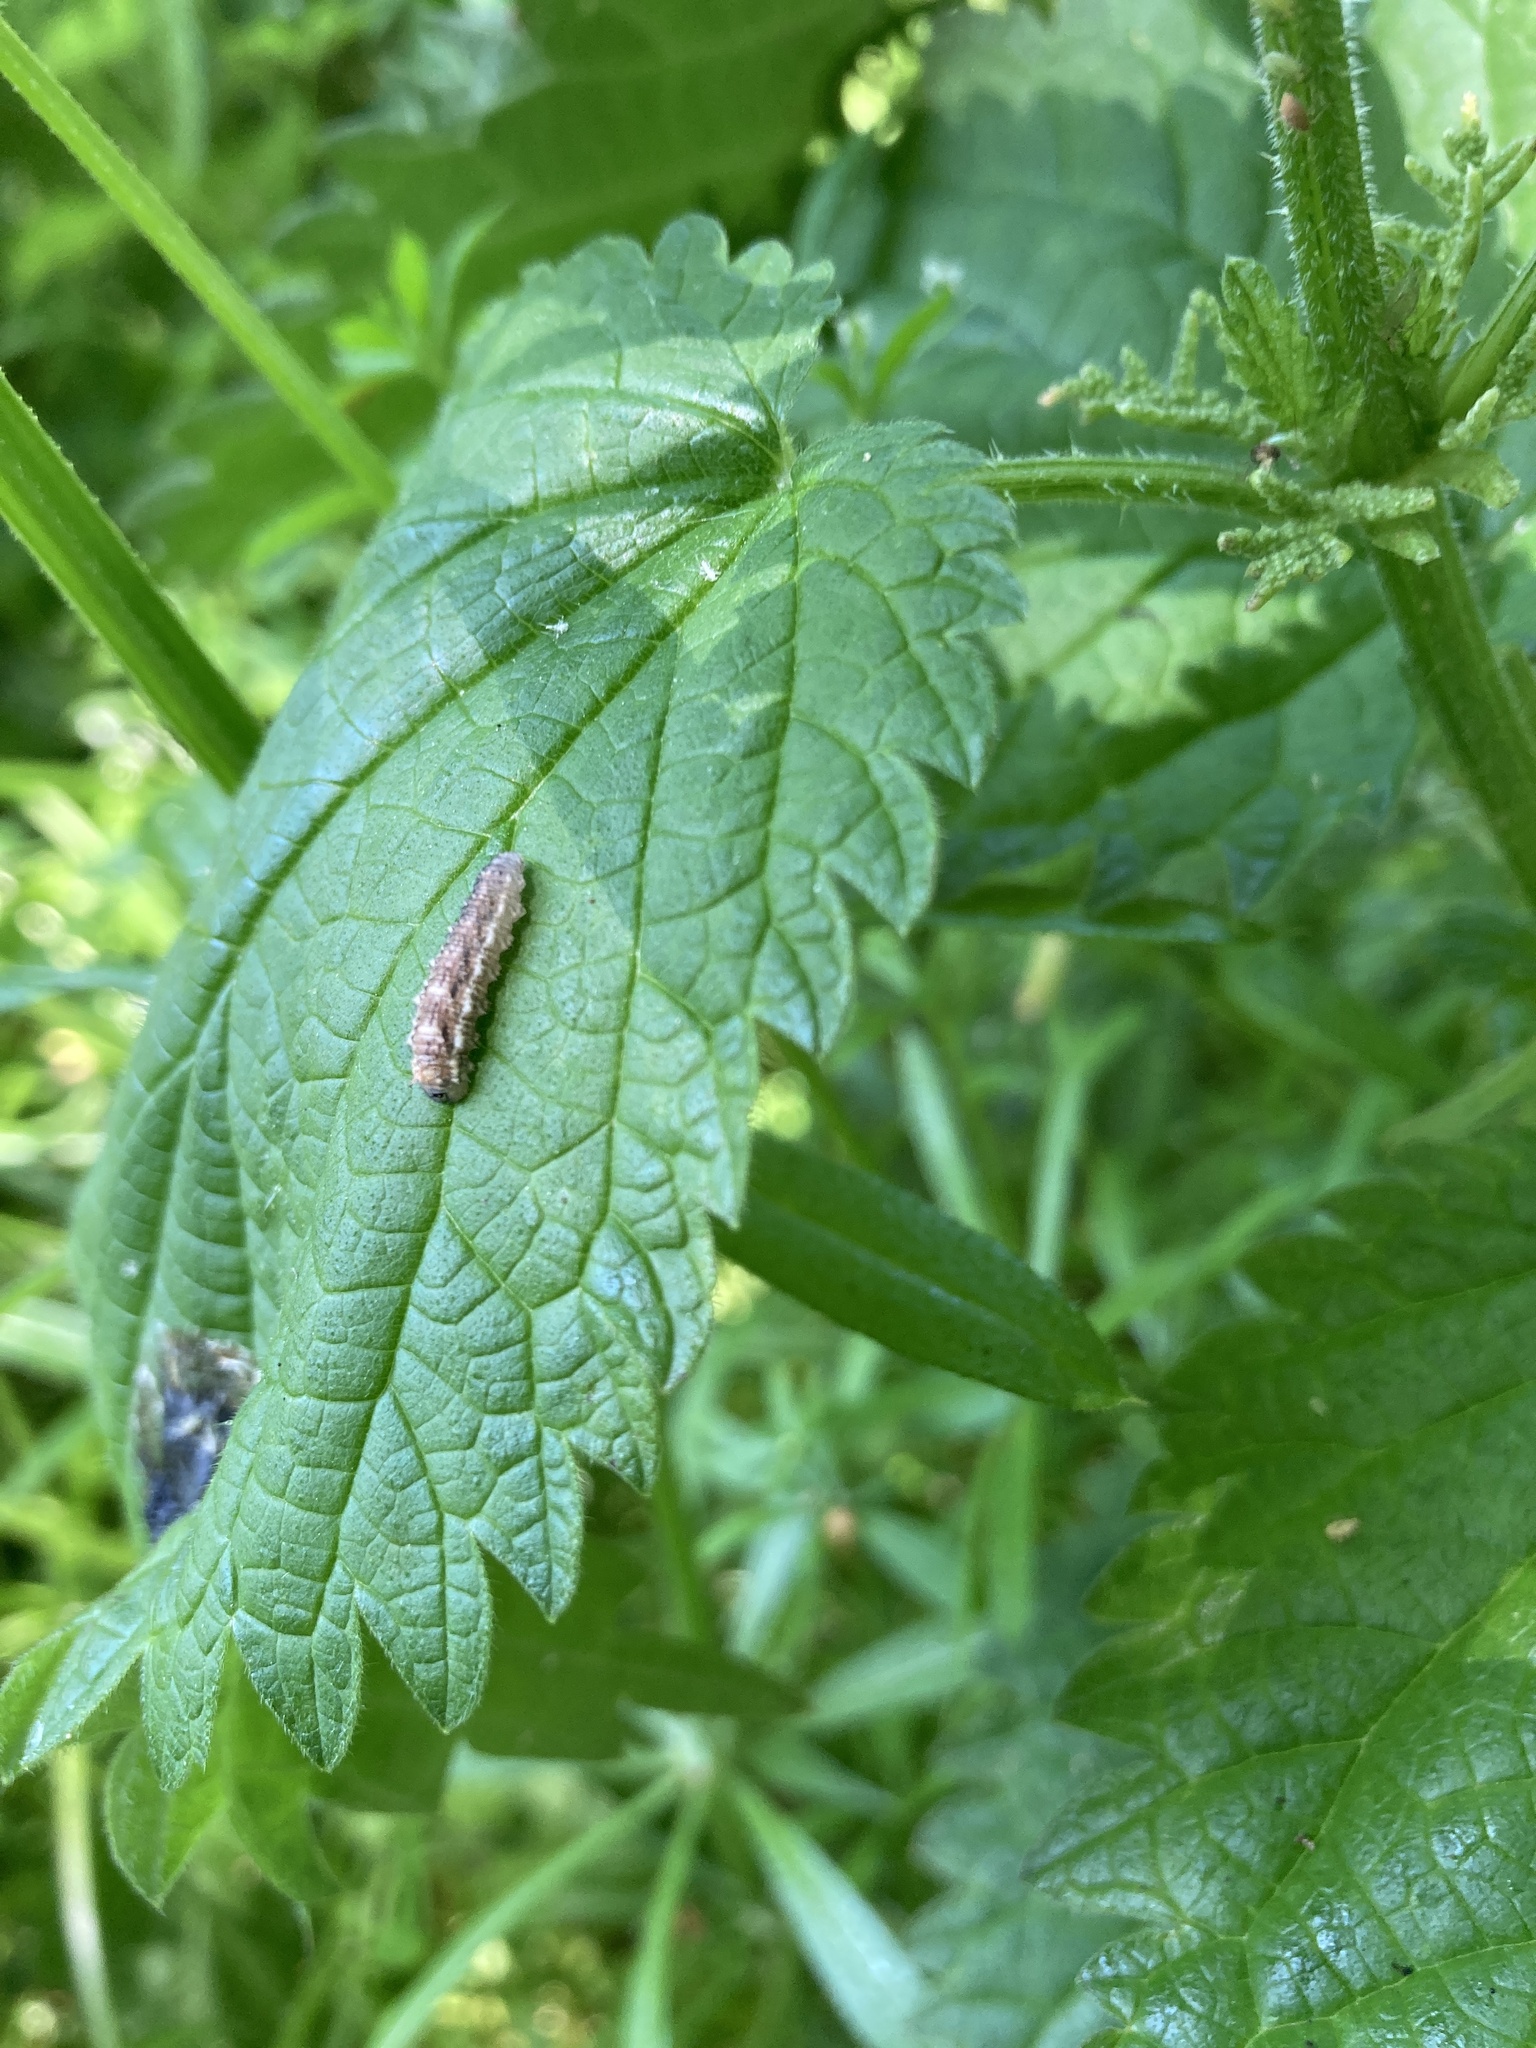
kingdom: Animalia
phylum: Arthropoda
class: Insecta
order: Diptera
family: Syrphidae
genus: Eupeodes
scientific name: Eupeodes
